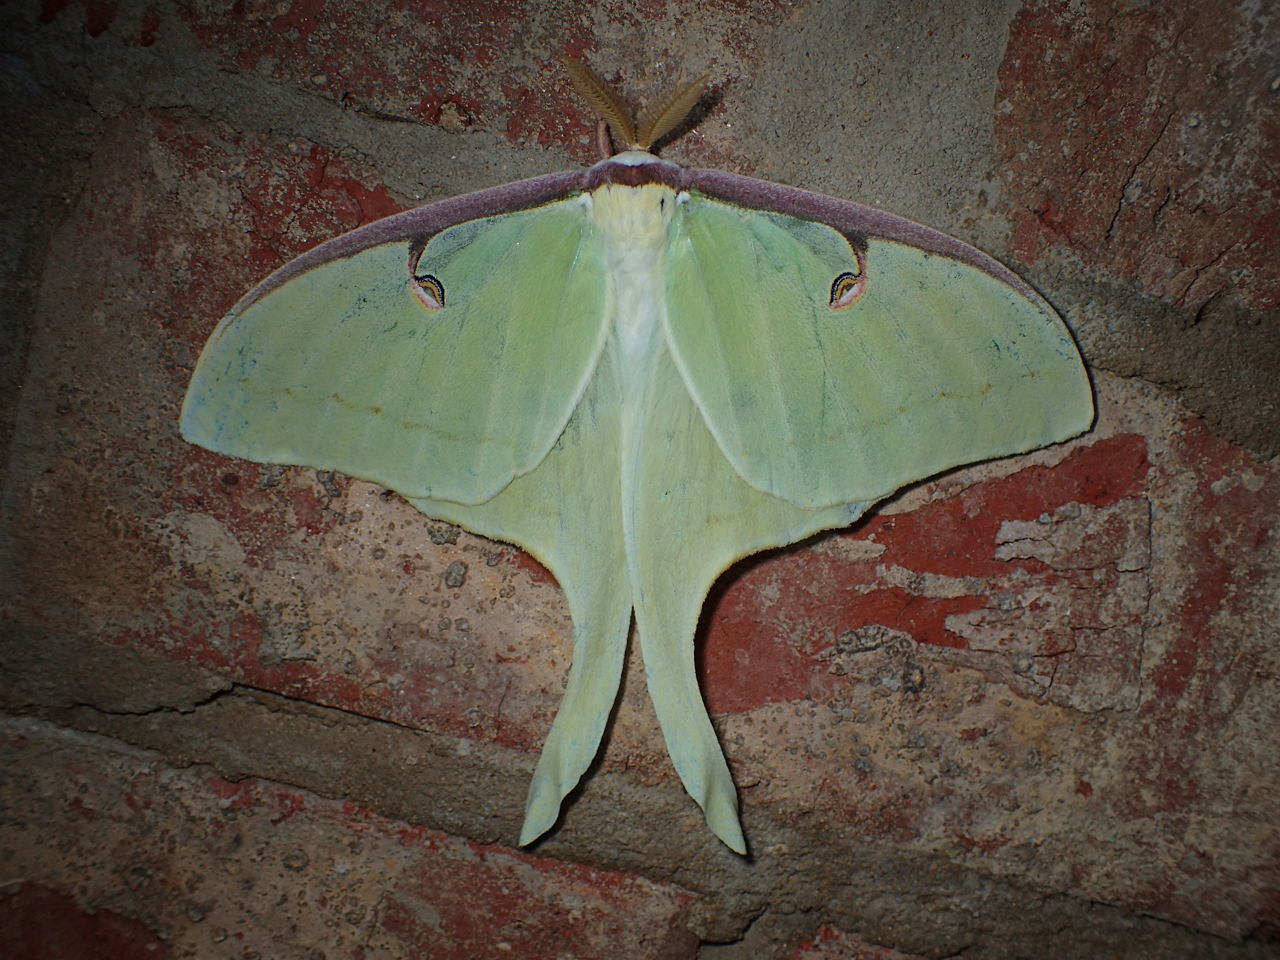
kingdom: Animalia
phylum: Arthropoda
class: Insecta
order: Lepidoptera
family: Saturniidae
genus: Actias
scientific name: Actias luna
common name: Luna moth
